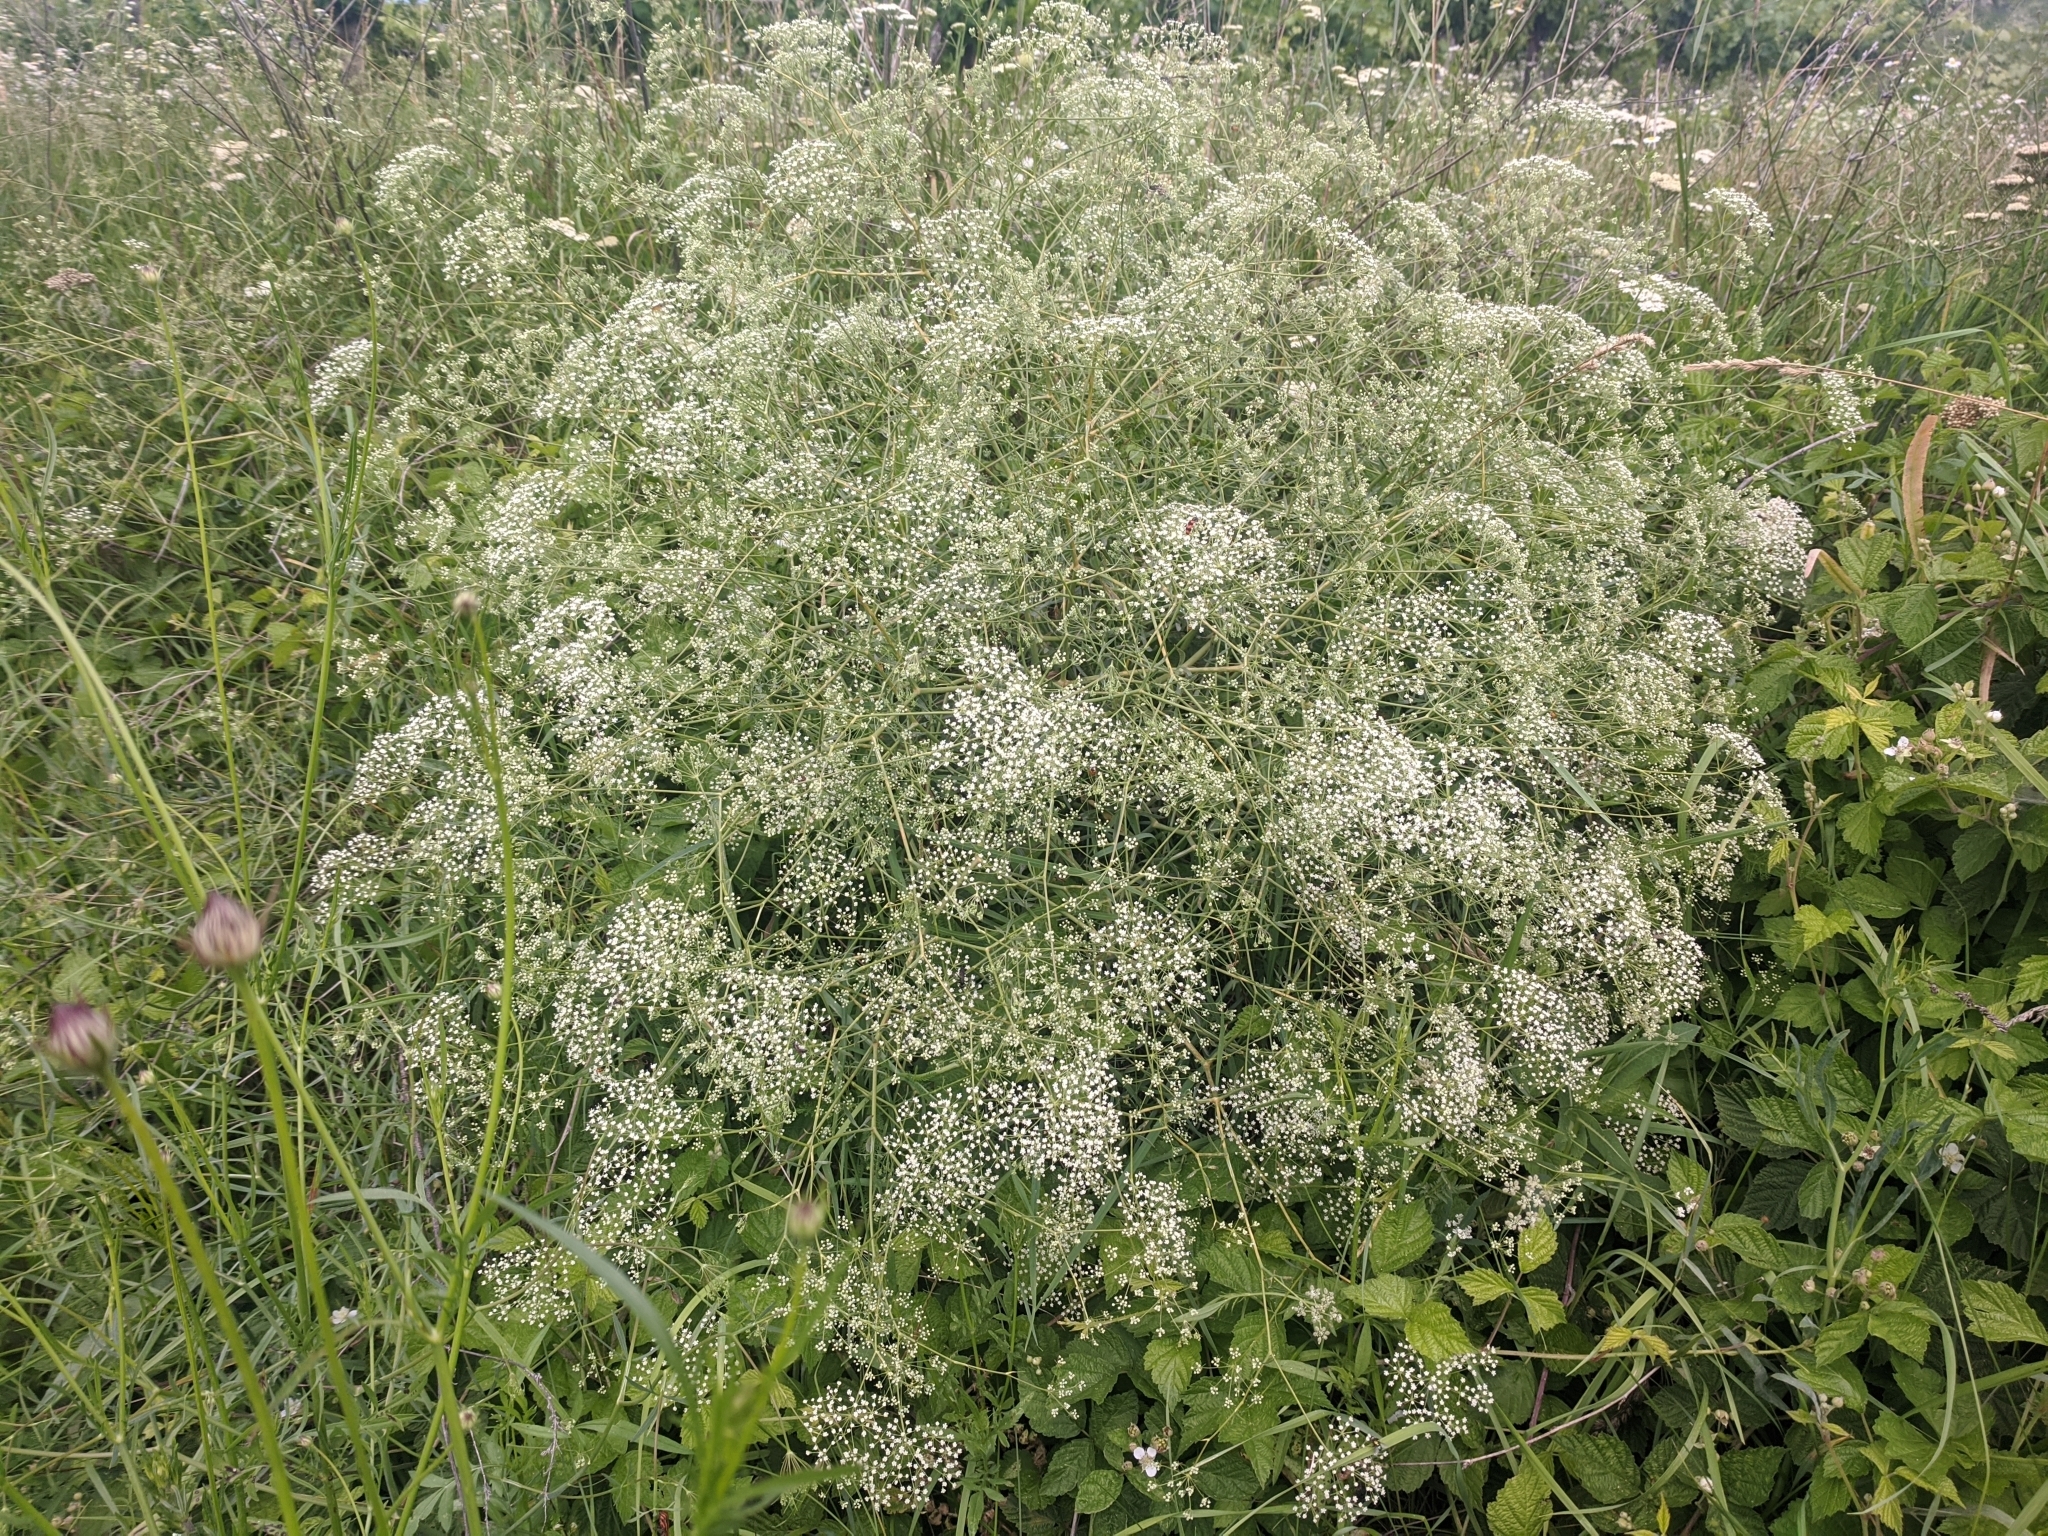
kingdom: Plantae
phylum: Tracheophyta
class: Magnoliopsida
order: Apiales
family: Apiaceae
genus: Falcaria
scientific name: Falcaria vulgaris
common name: Longleaf
